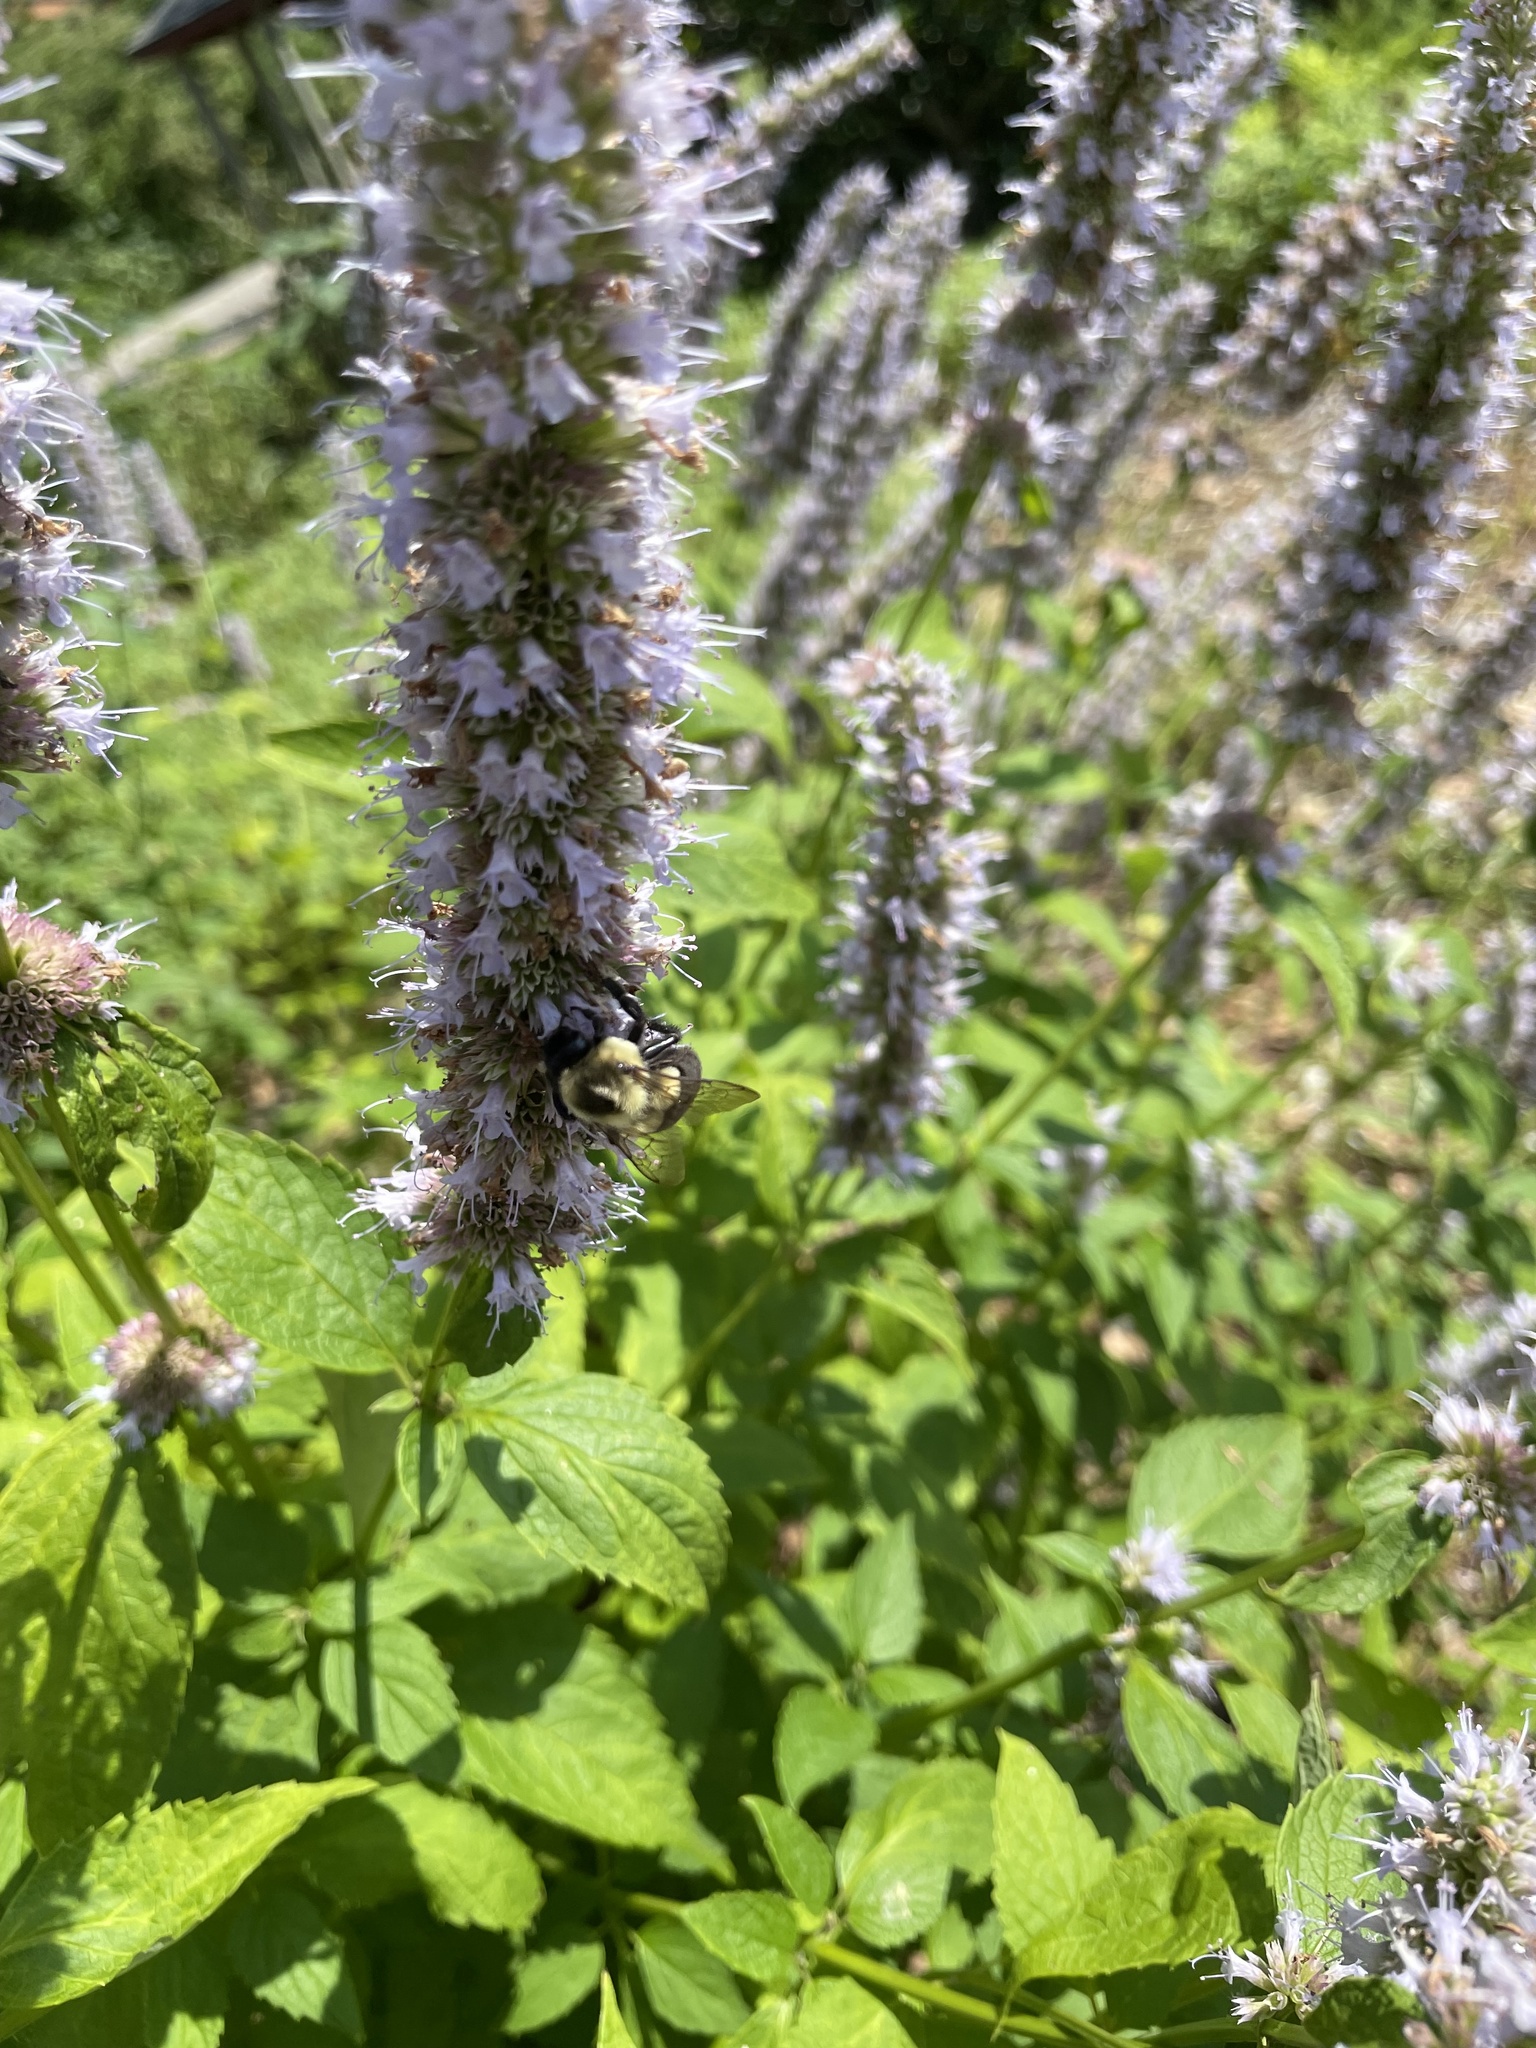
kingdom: Animalia
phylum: Arthropoda
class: Insecta
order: Hymenoptera
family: Apidae
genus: Bombus
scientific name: Bombus impatiens
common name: Common eastern bumble bee
